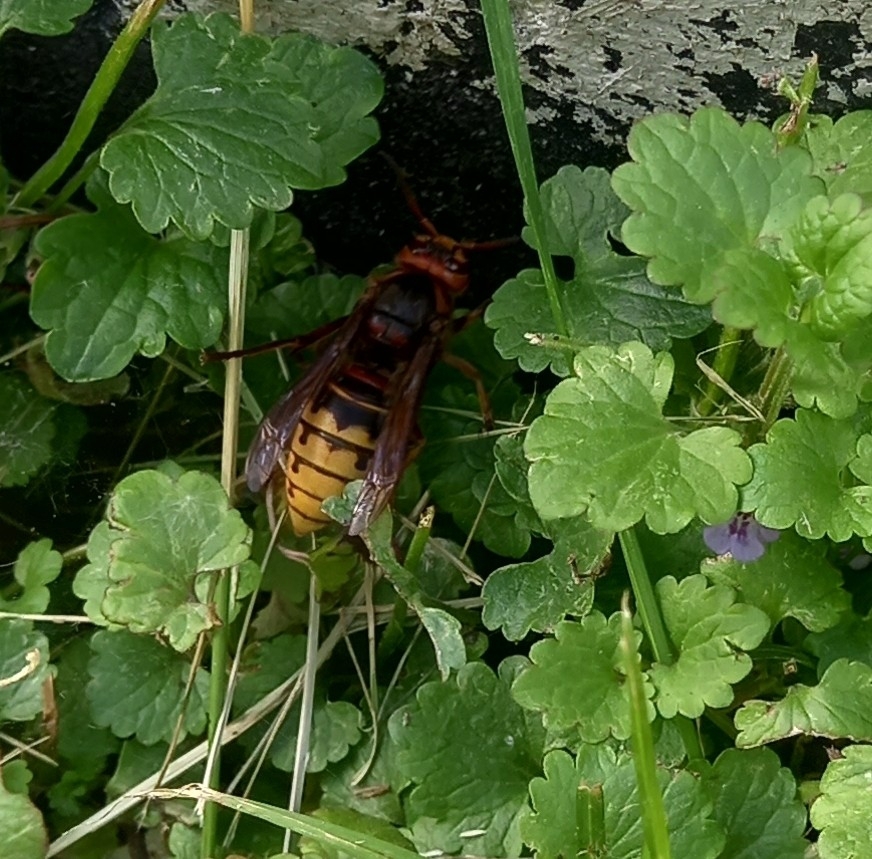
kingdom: Animalia
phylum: Arthropoda
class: Insecta
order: Hymenoptera
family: Vespidae
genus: Vespa
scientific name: Vespa crabro
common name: Hornet
